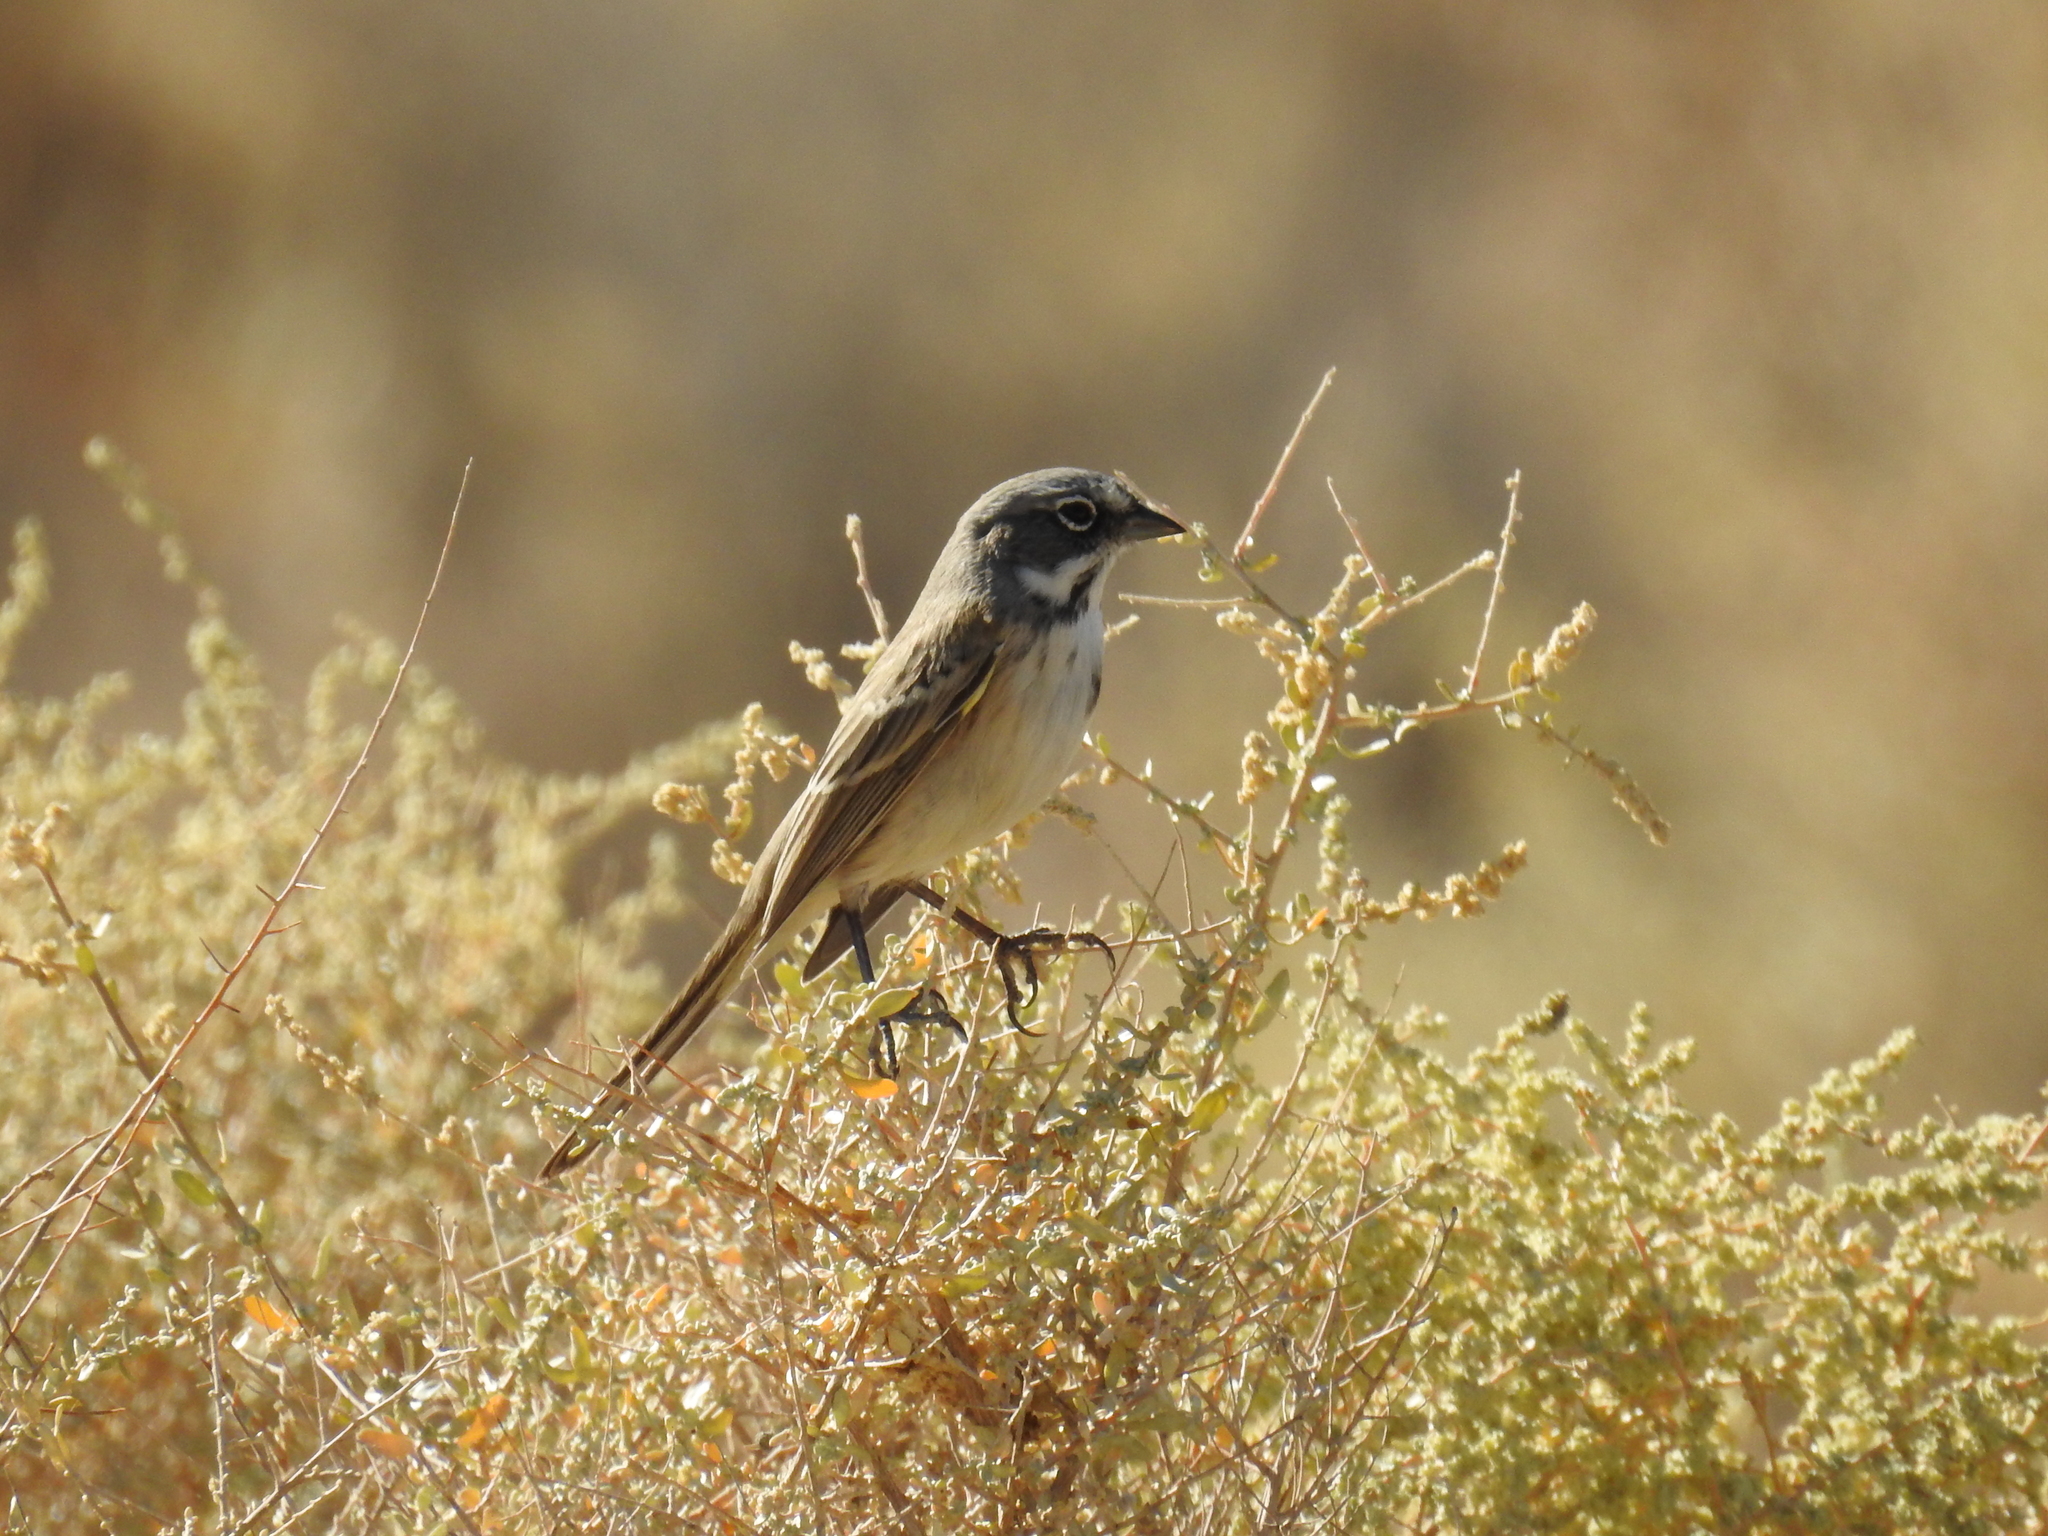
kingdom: Animalia
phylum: Chordata
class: Aves
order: Passeriformes
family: Passerellidae
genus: Artemisiospiza
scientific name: Artemisiospiza belli
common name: Bell's sparrow
